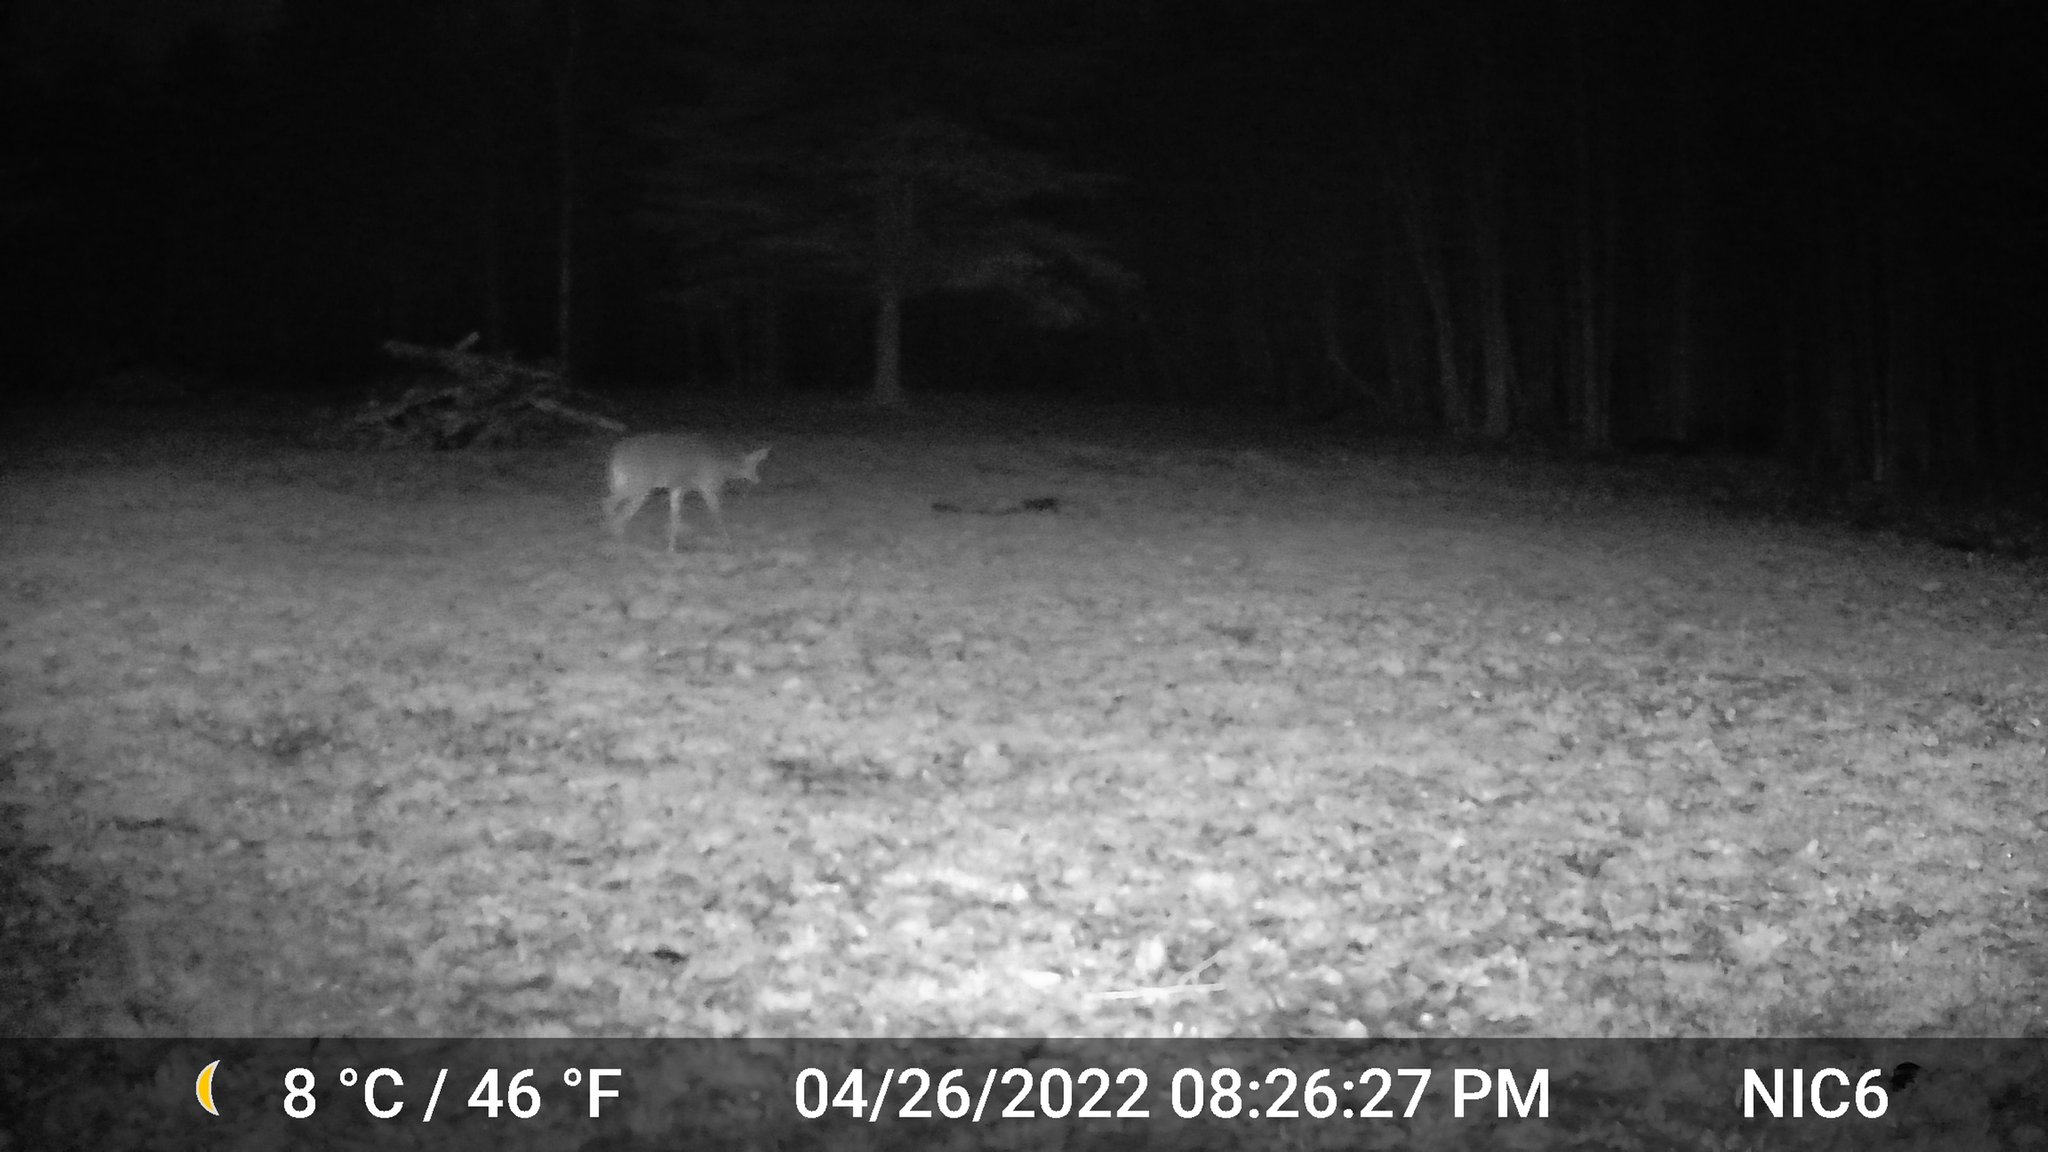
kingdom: Animalia
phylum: Chordata
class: Mammalia
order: Artiodactyla
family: Cervidae
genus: Odocoileus
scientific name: Odocoileus virginianus
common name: White-tailed deer
